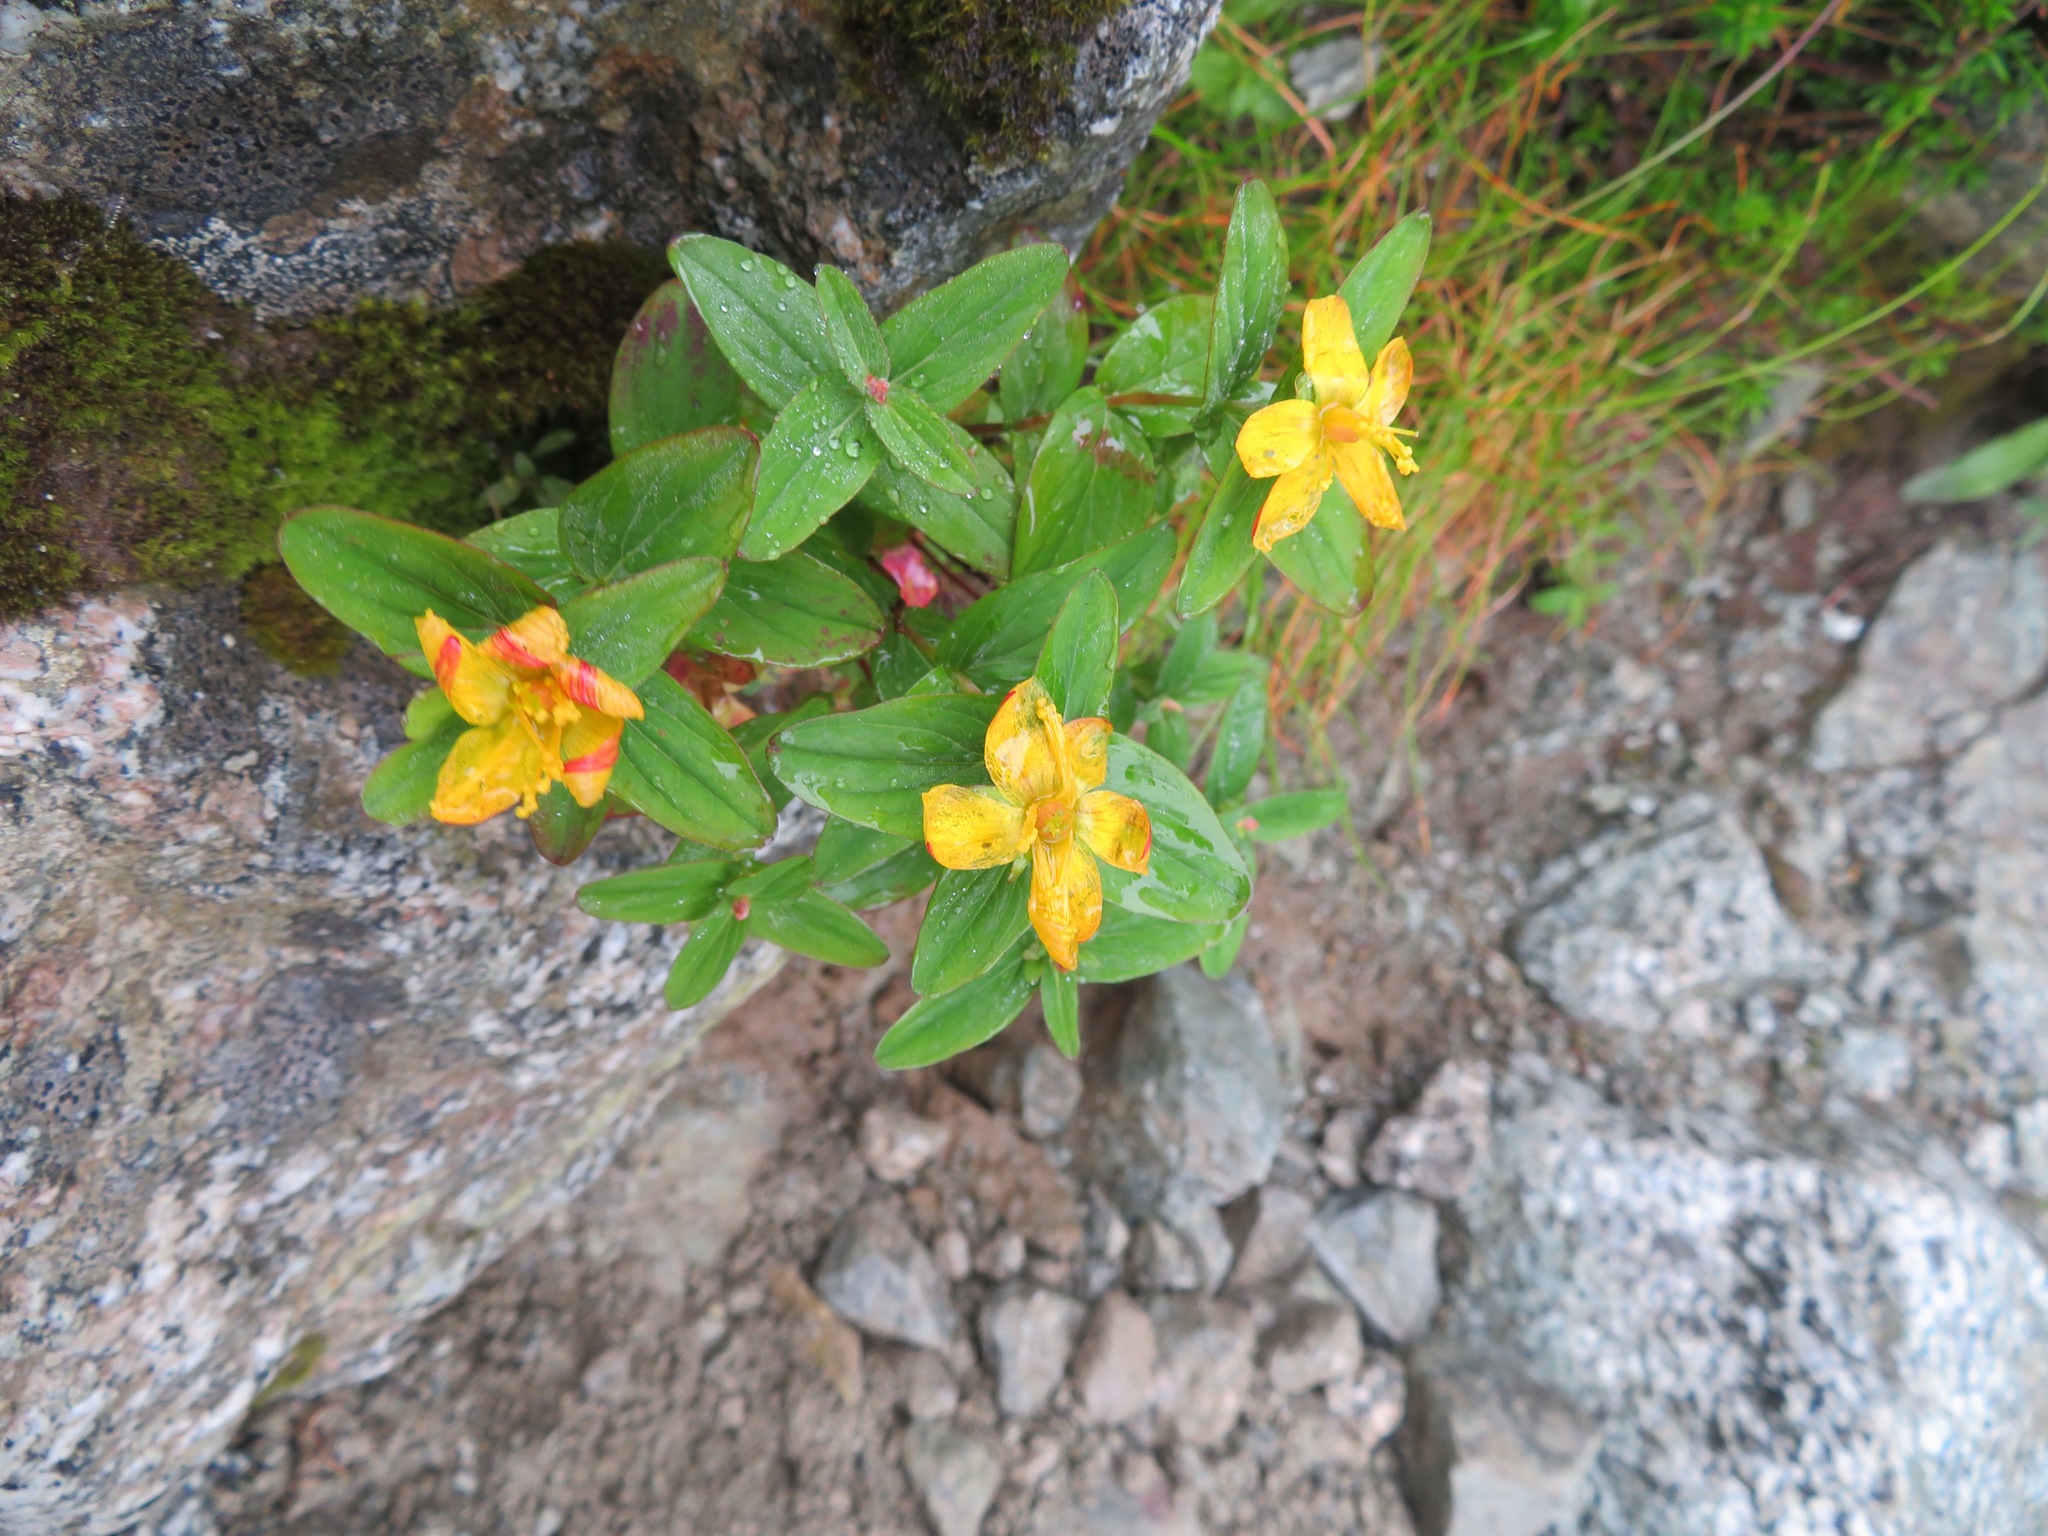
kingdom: Plantae
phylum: Tracheophyta
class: Magnoliopsida
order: Malpighiales
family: Hypericaceae
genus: Hypericum
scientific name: Hypericum kamtschaticum
